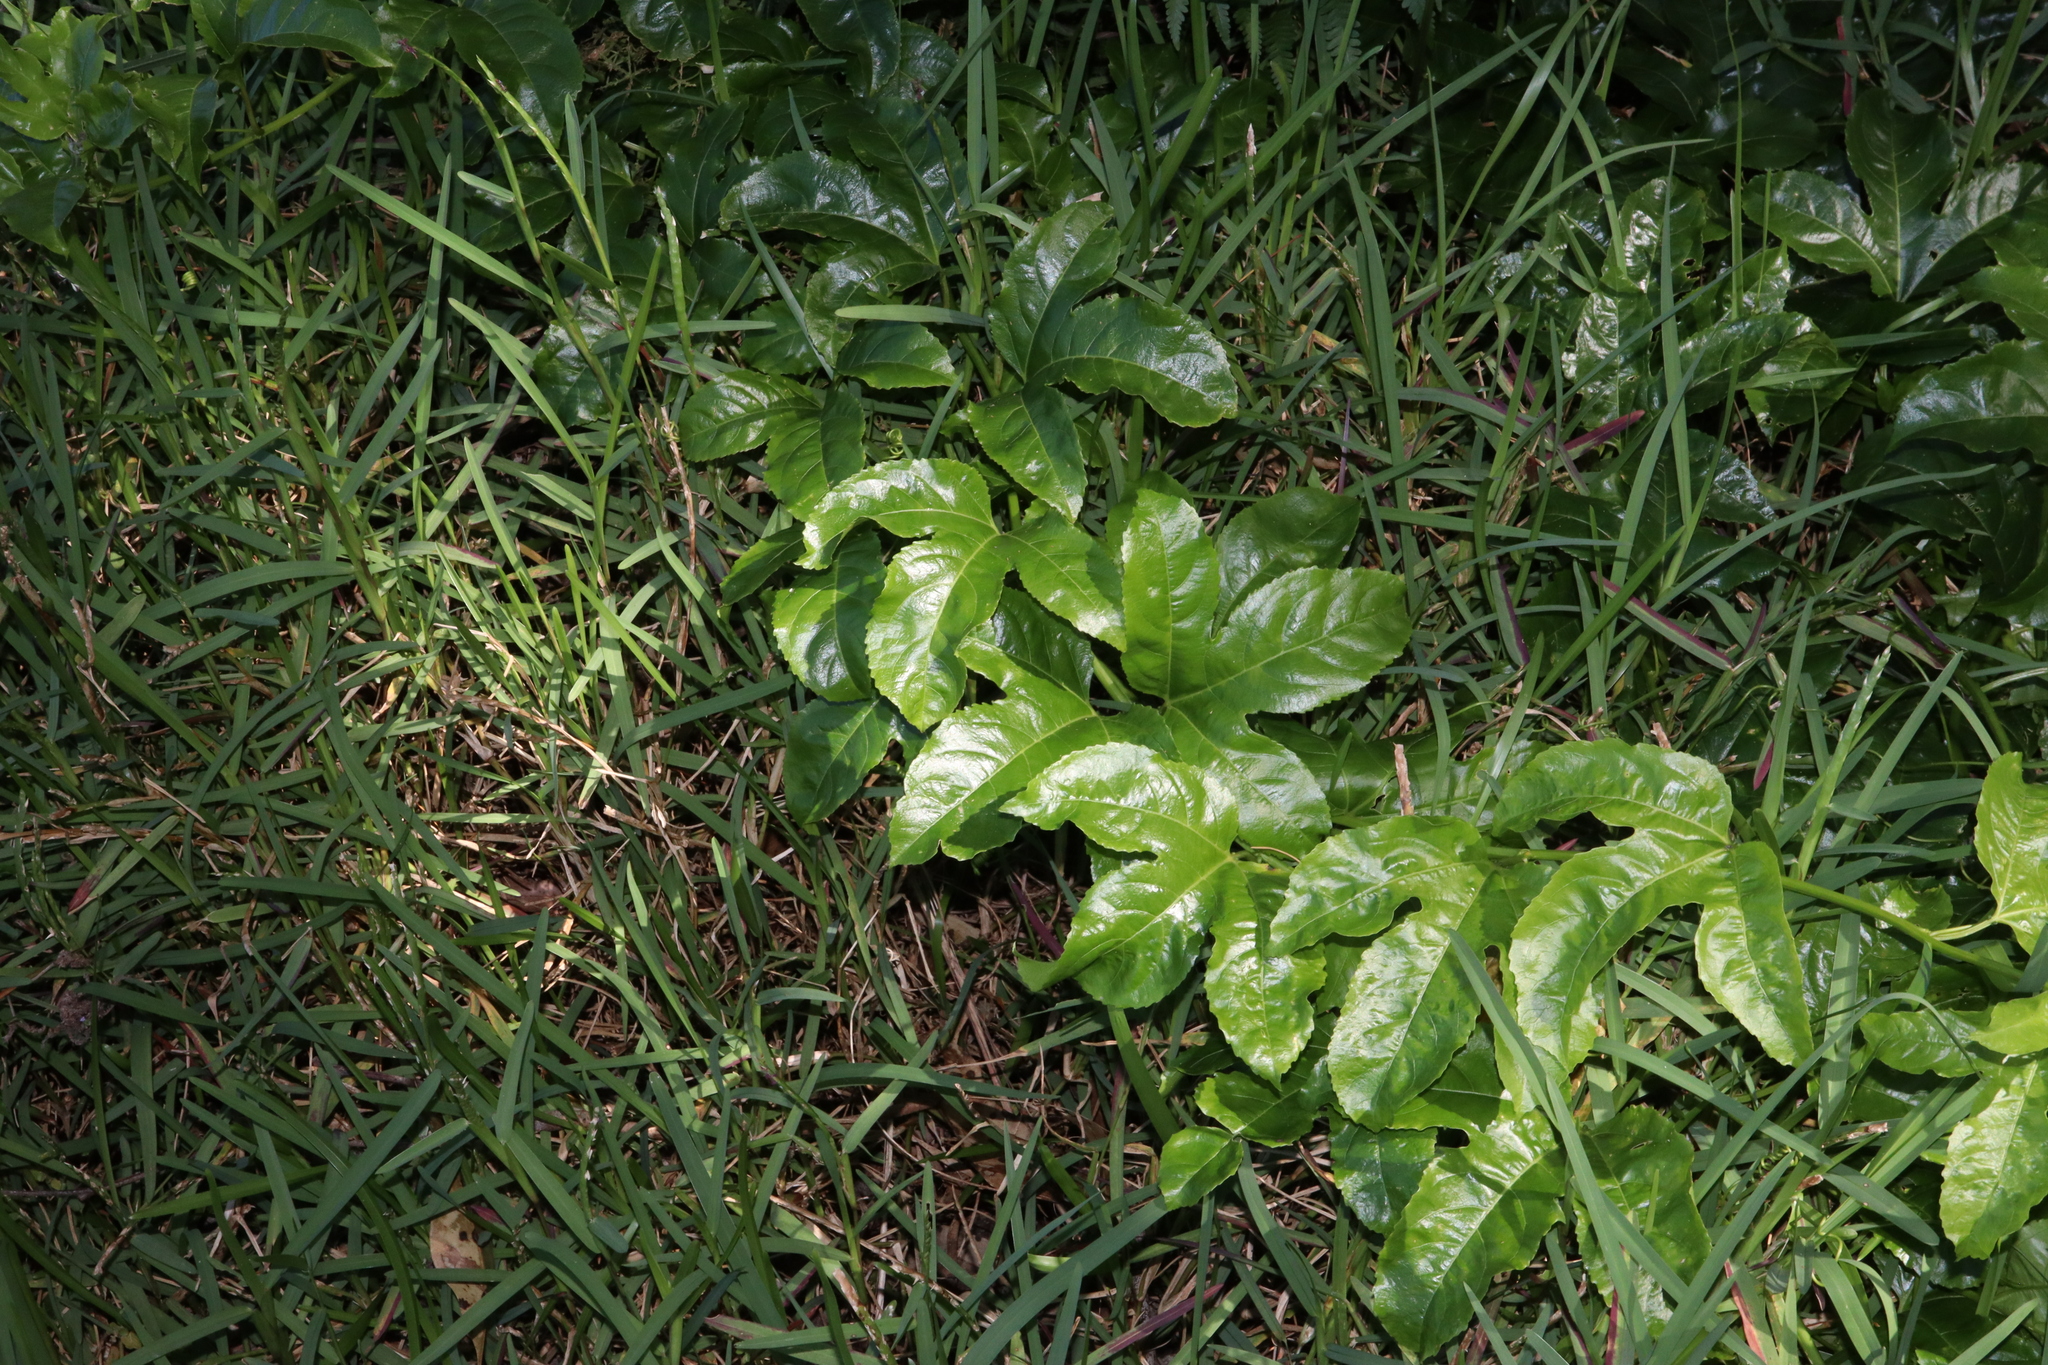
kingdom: Plantae
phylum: Tracheophyta
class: Magnoliopsida
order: Malpighiales
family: Passifloraceae
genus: Passiflora
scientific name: Passiflora edulis
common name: Purple granadilla
